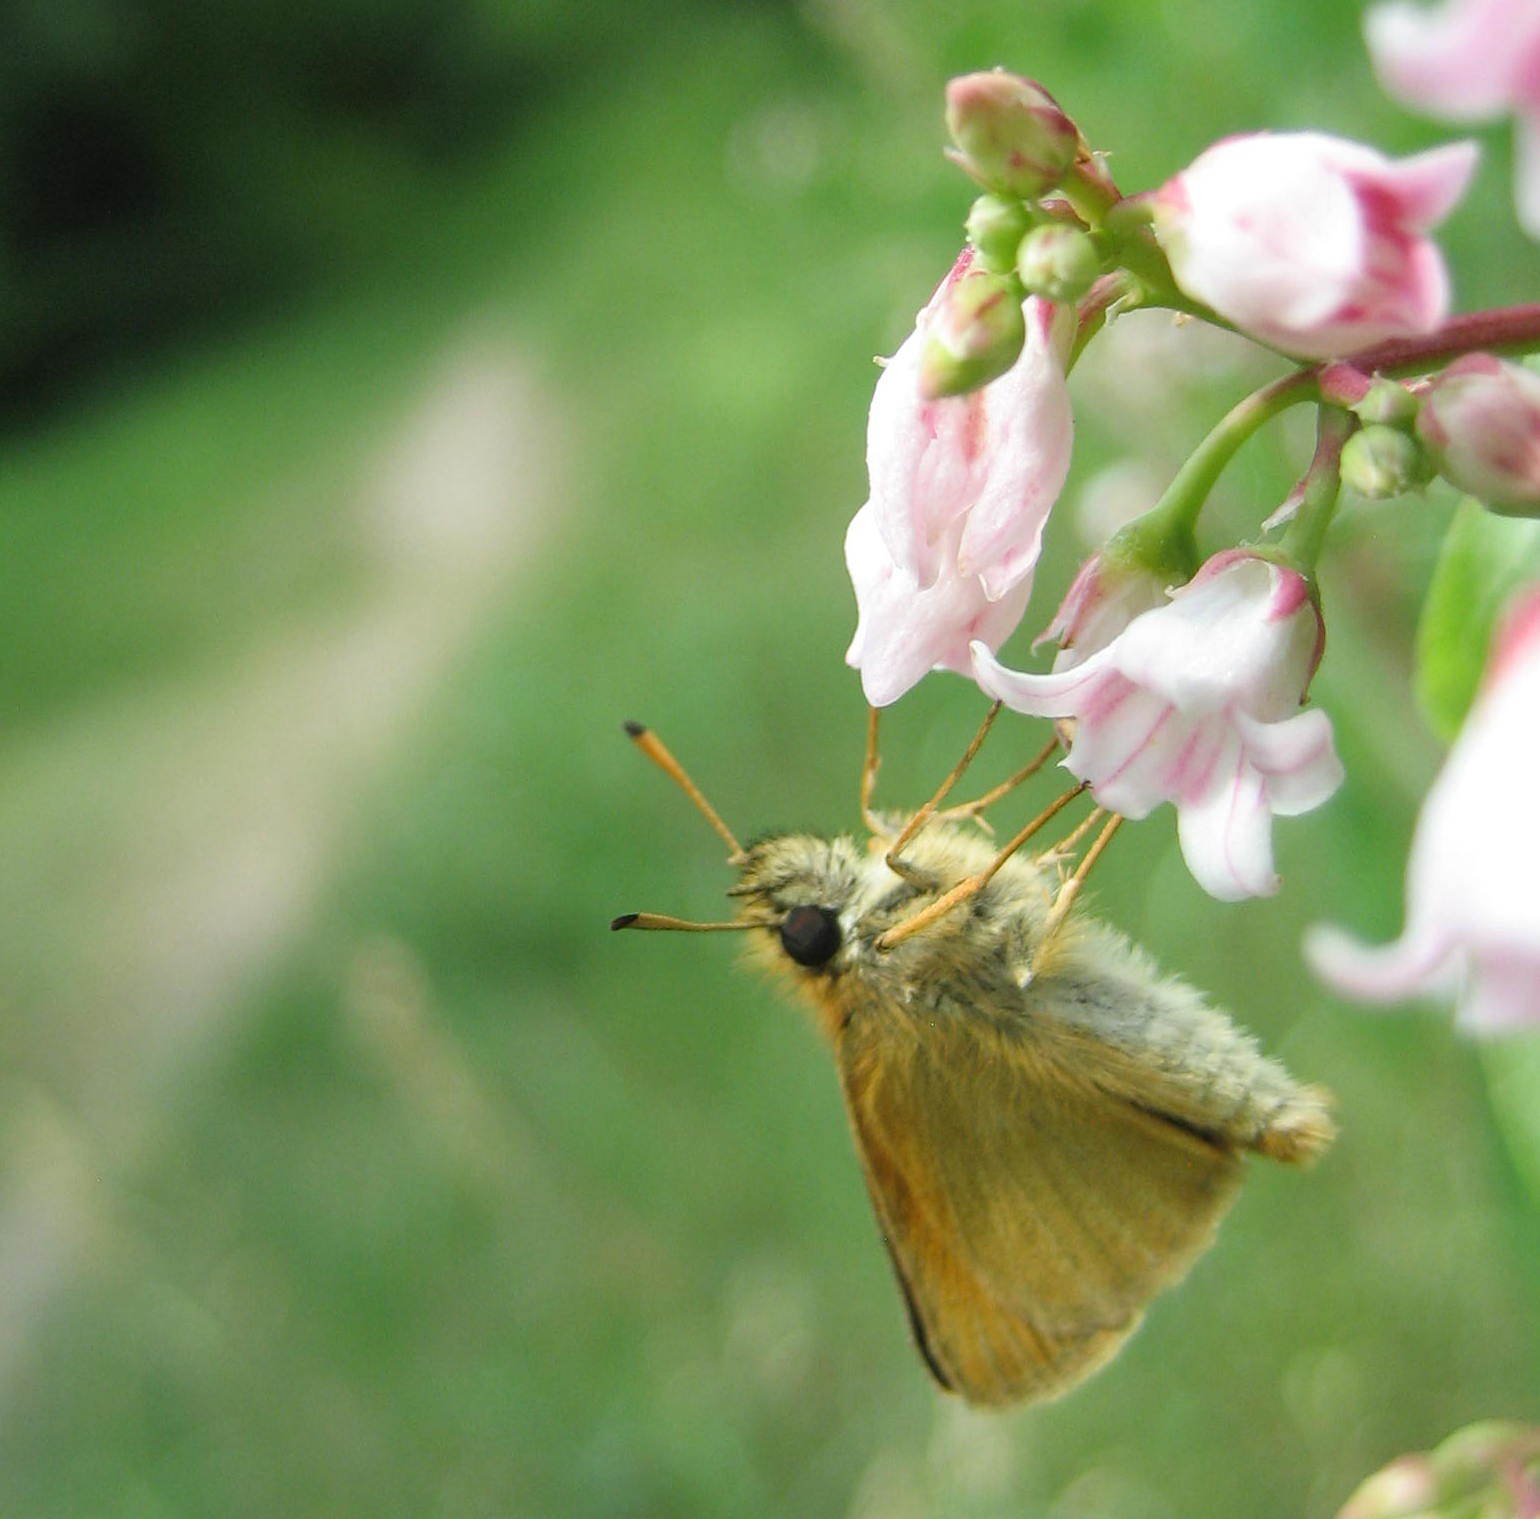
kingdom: Animalia
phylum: Arthropoda
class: Insecta
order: Lepidoptera
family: Hesperiidae
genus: Thymelicus
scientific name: Thymelicus lineola
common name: Essex skipper
